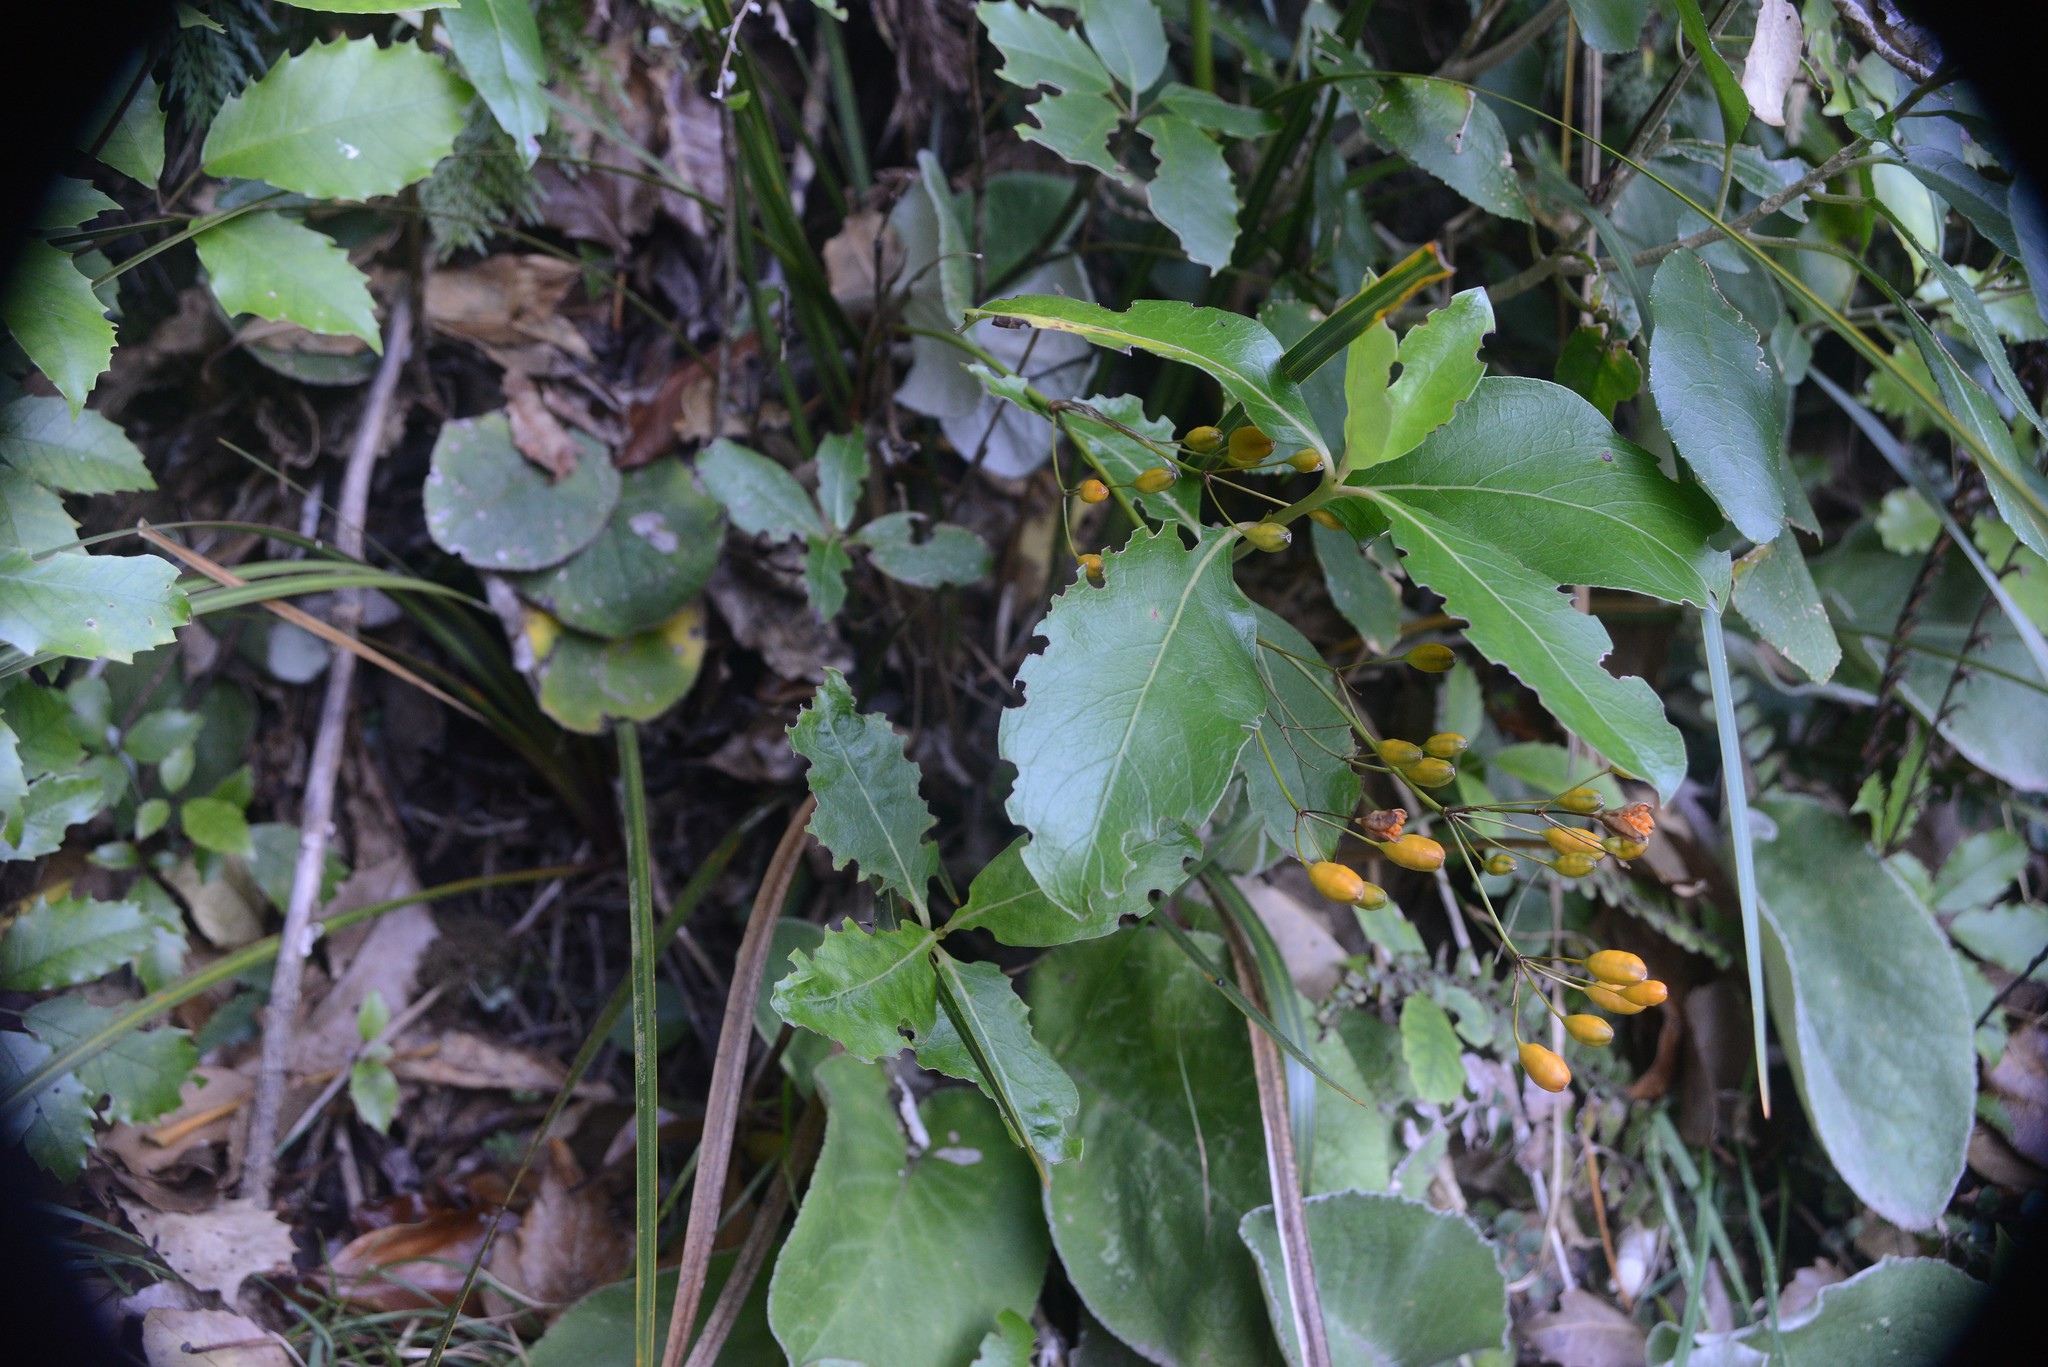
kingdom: Plantae
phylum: Tracheophyta
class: Liliopsida
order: Asparagales
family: Iridaceae
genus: Libertia
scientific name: Libertia ixioides
